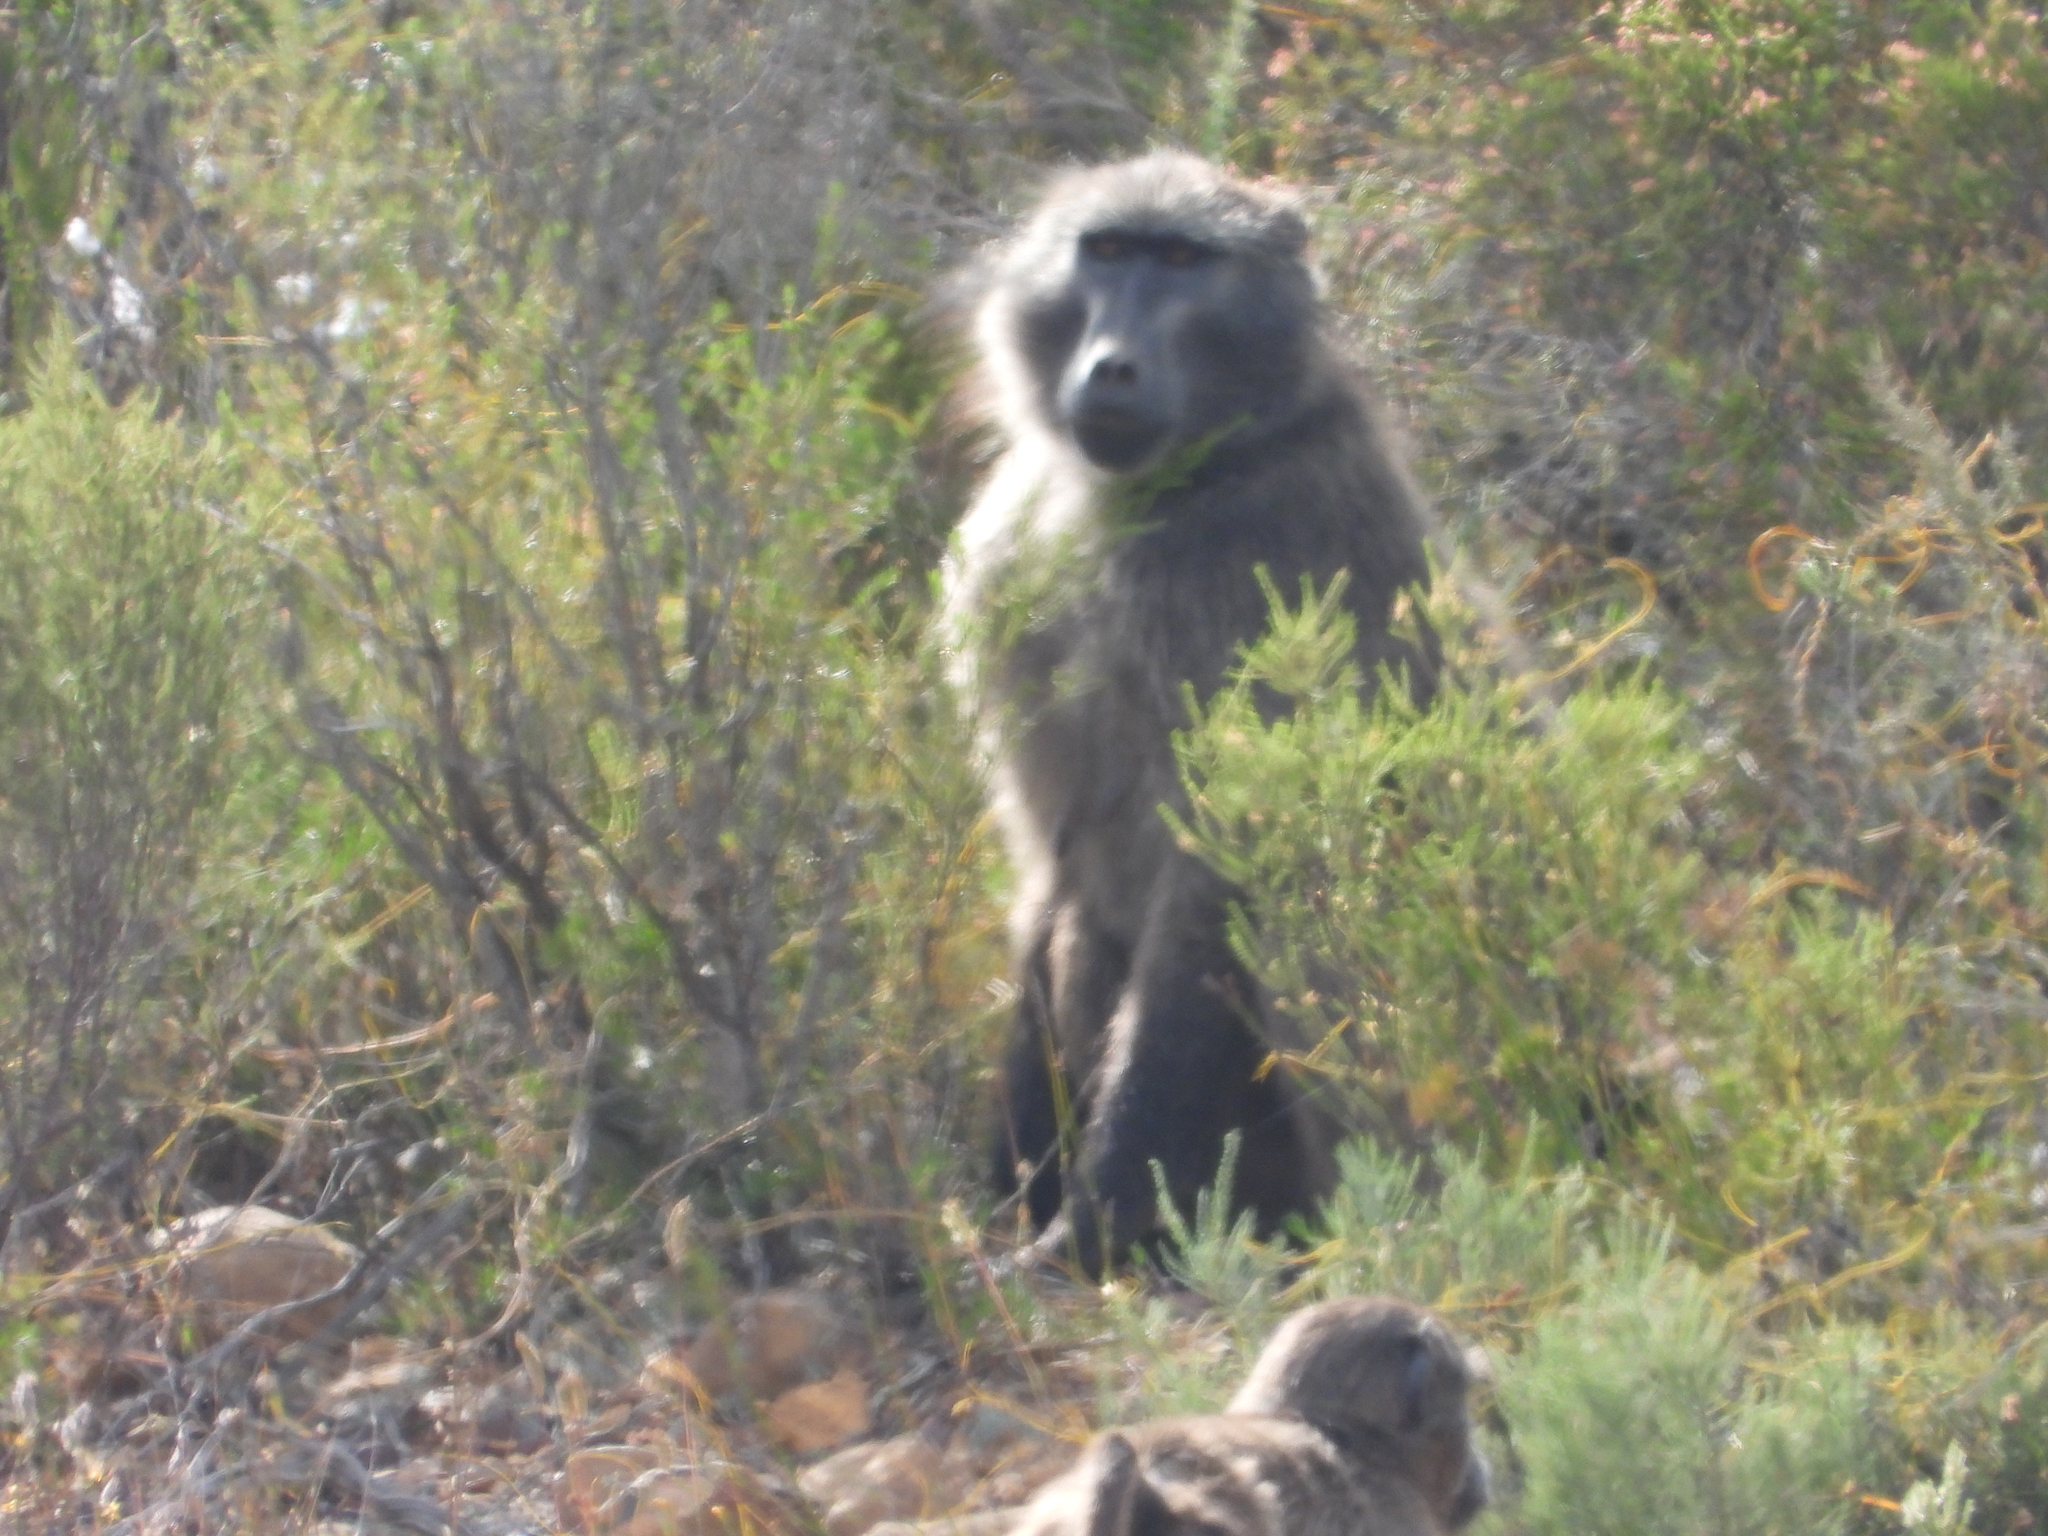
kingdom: Animalia
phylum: Chordata
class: Mammalia
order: Primates
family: Cercopithecidae
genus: Papio
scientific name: Papio ursinus
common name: Chacma baboon
